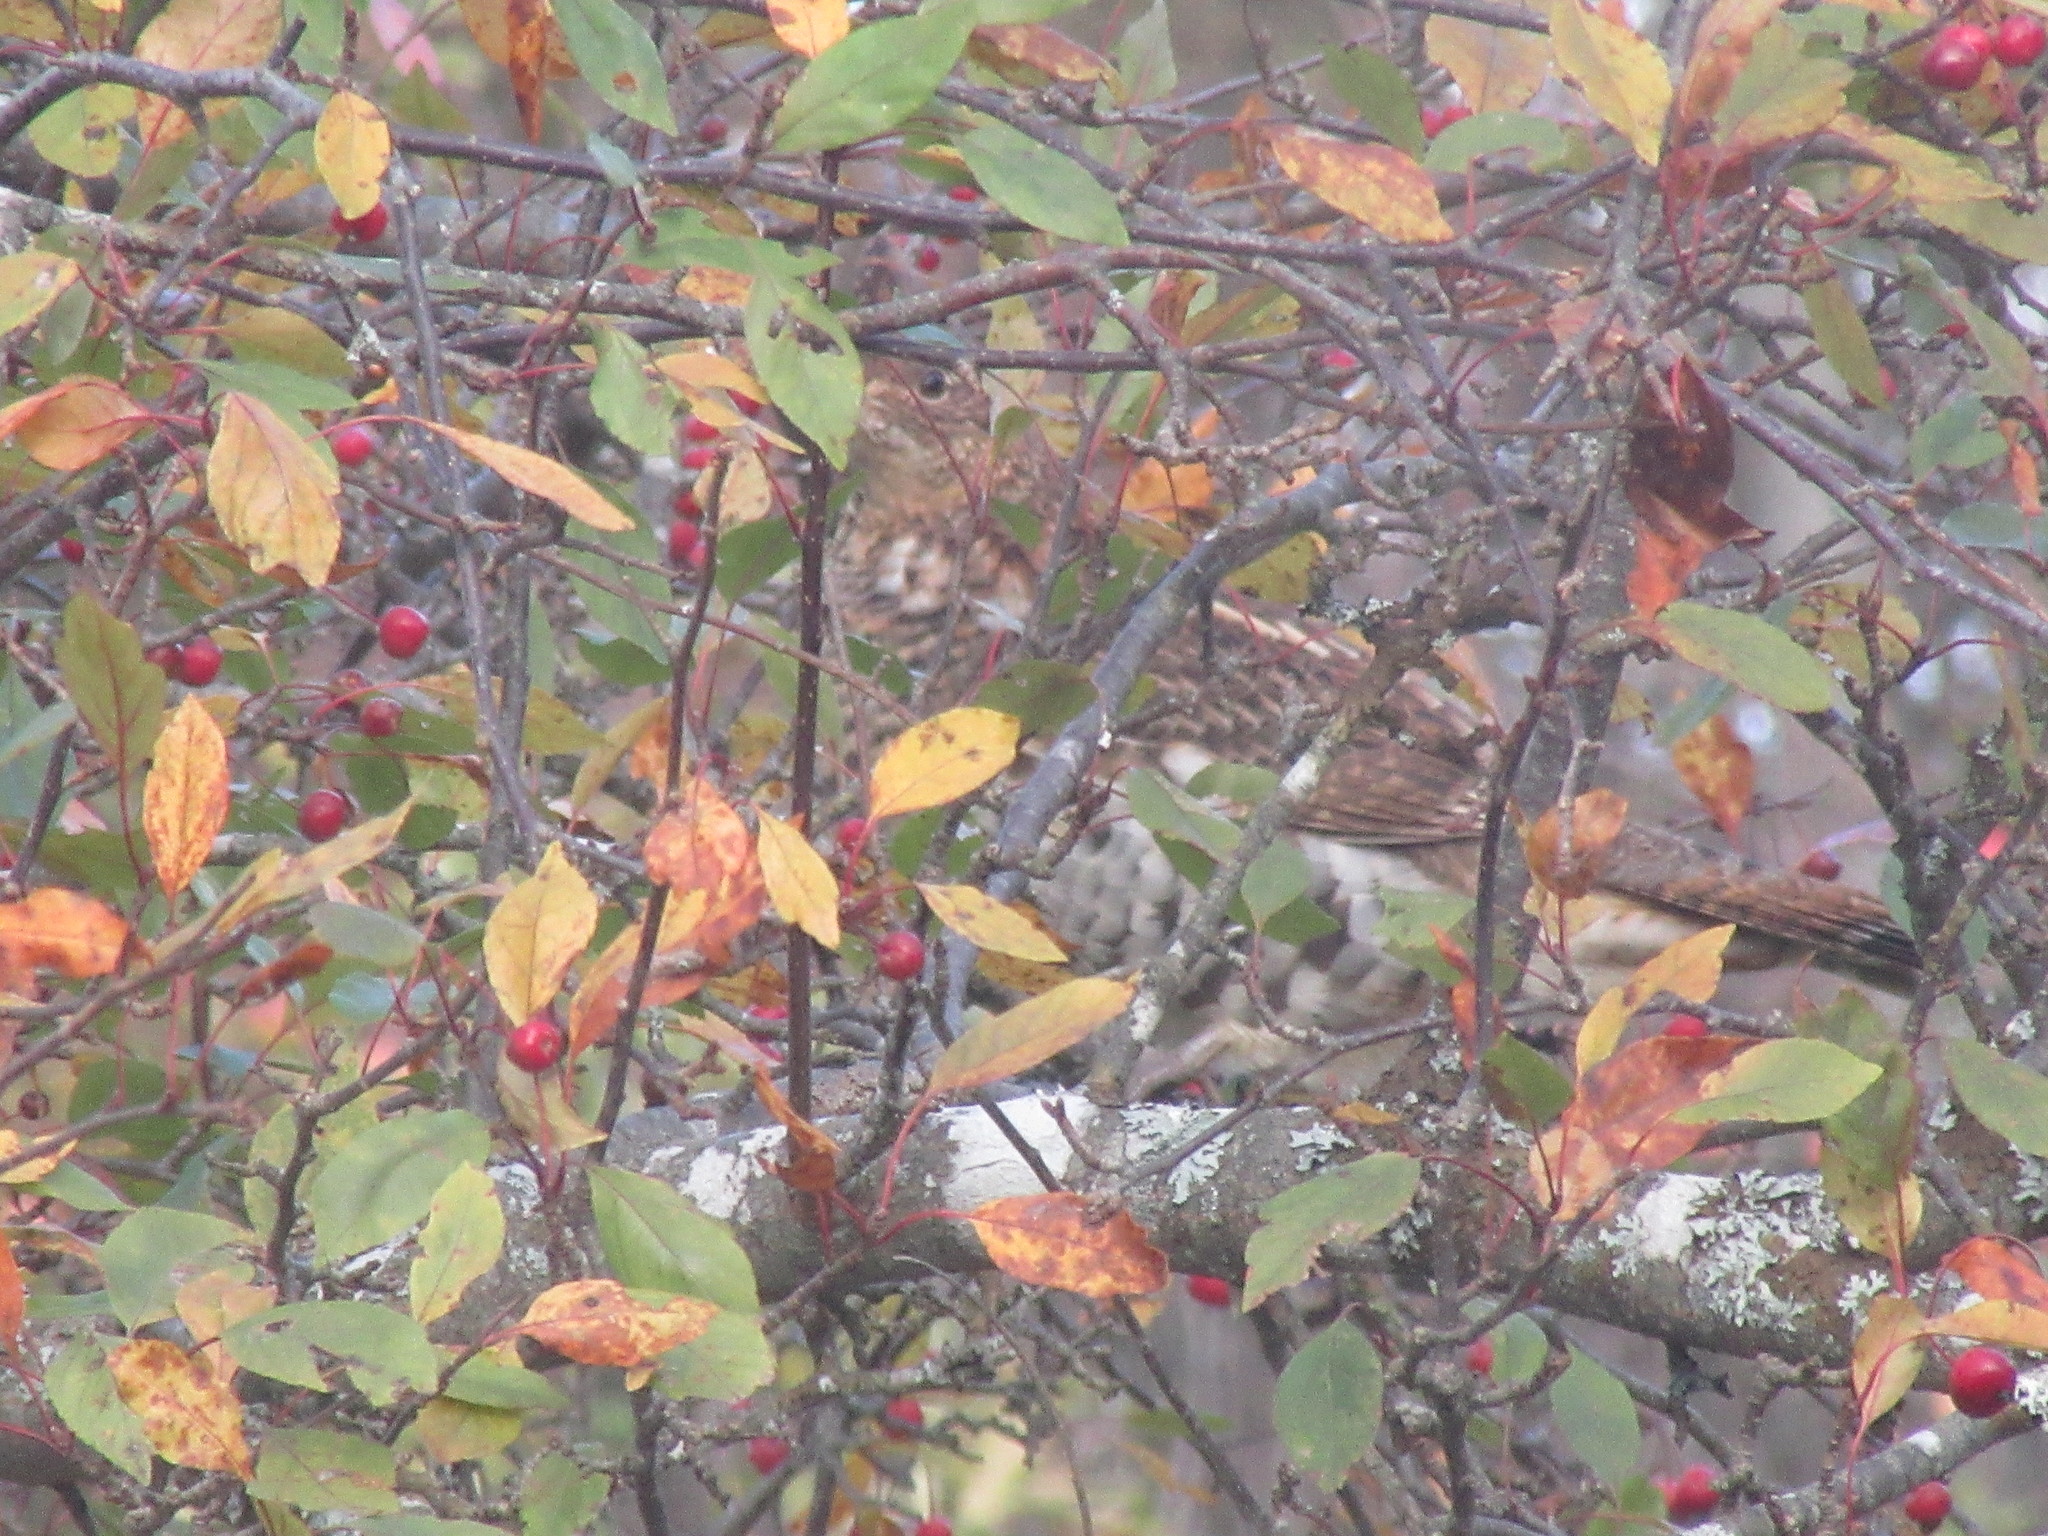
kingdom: Animalia
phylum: Chordata
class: Aves
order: Galliformes
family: Phasianidae
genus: Bonasa
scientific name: Bonasa umbellus
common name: Ruffed grouse
